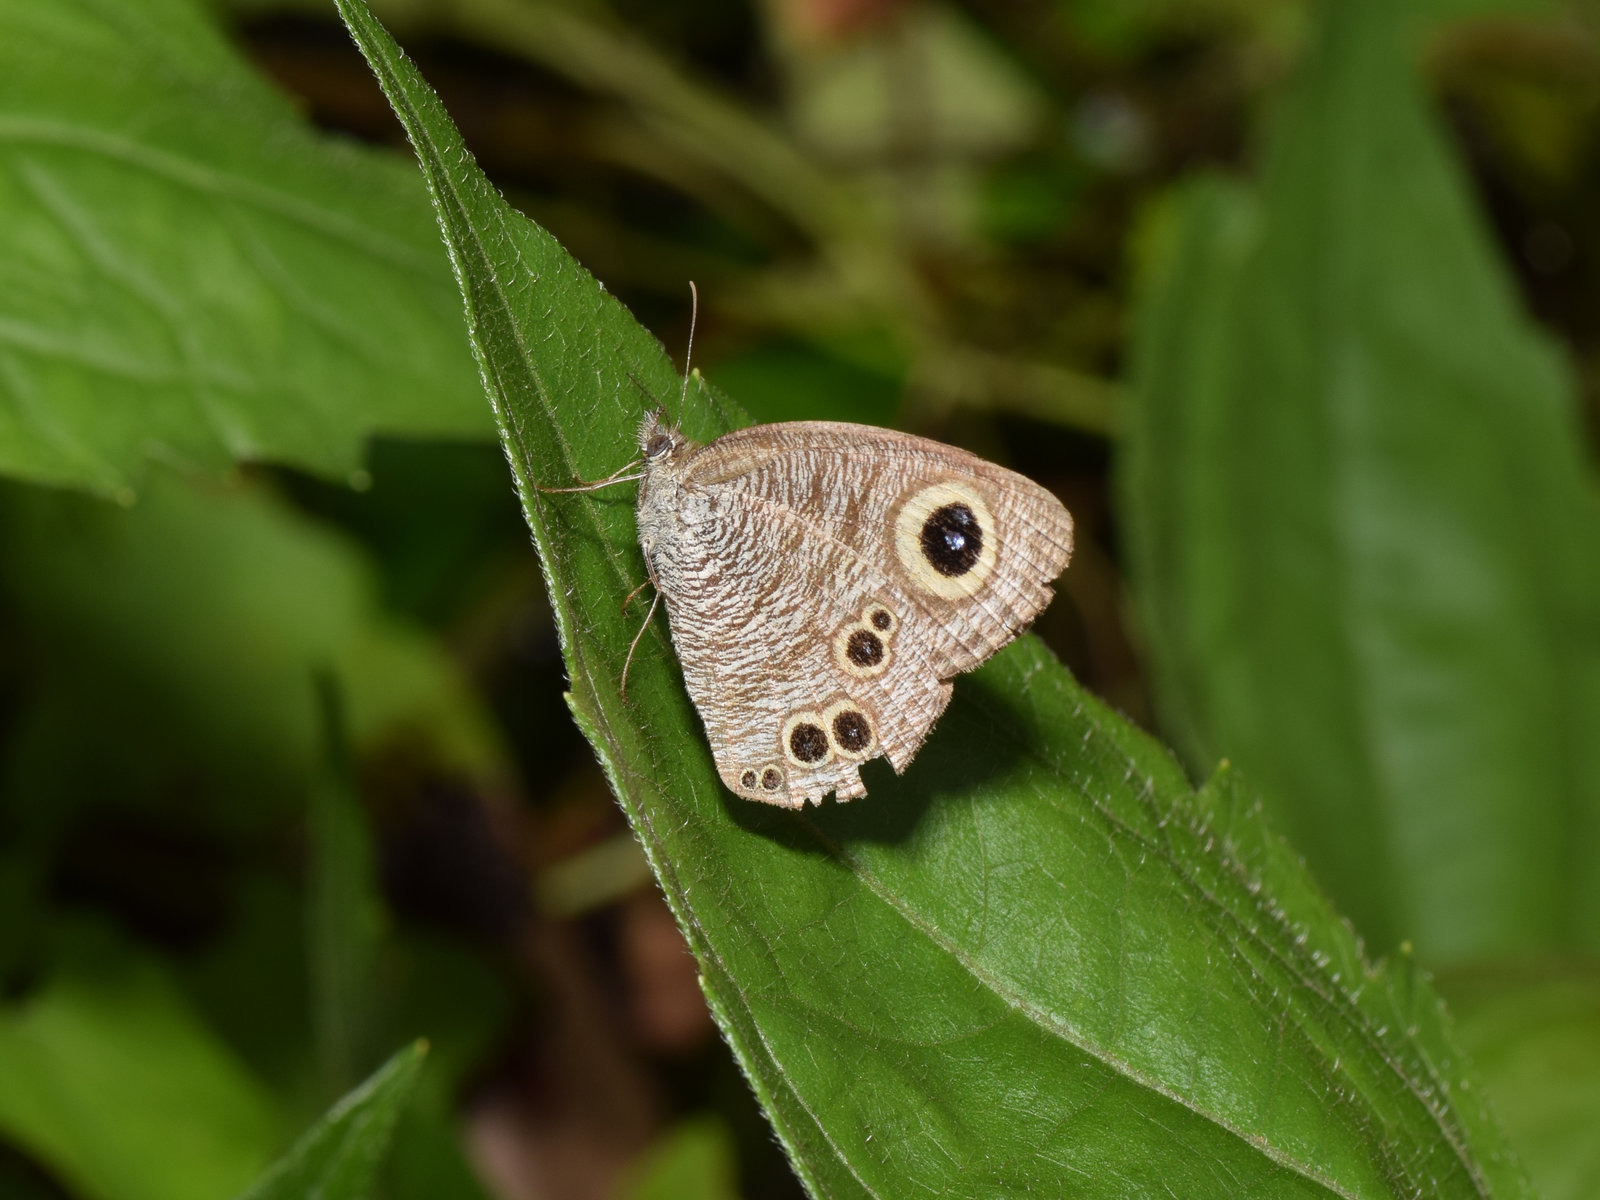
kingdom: Animalia
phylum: Arthropoda
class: Insecta
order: Lepidoptera
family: Nymphalidae
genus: Ypthima
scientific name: Ypthima baldus
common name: Common five-ring
